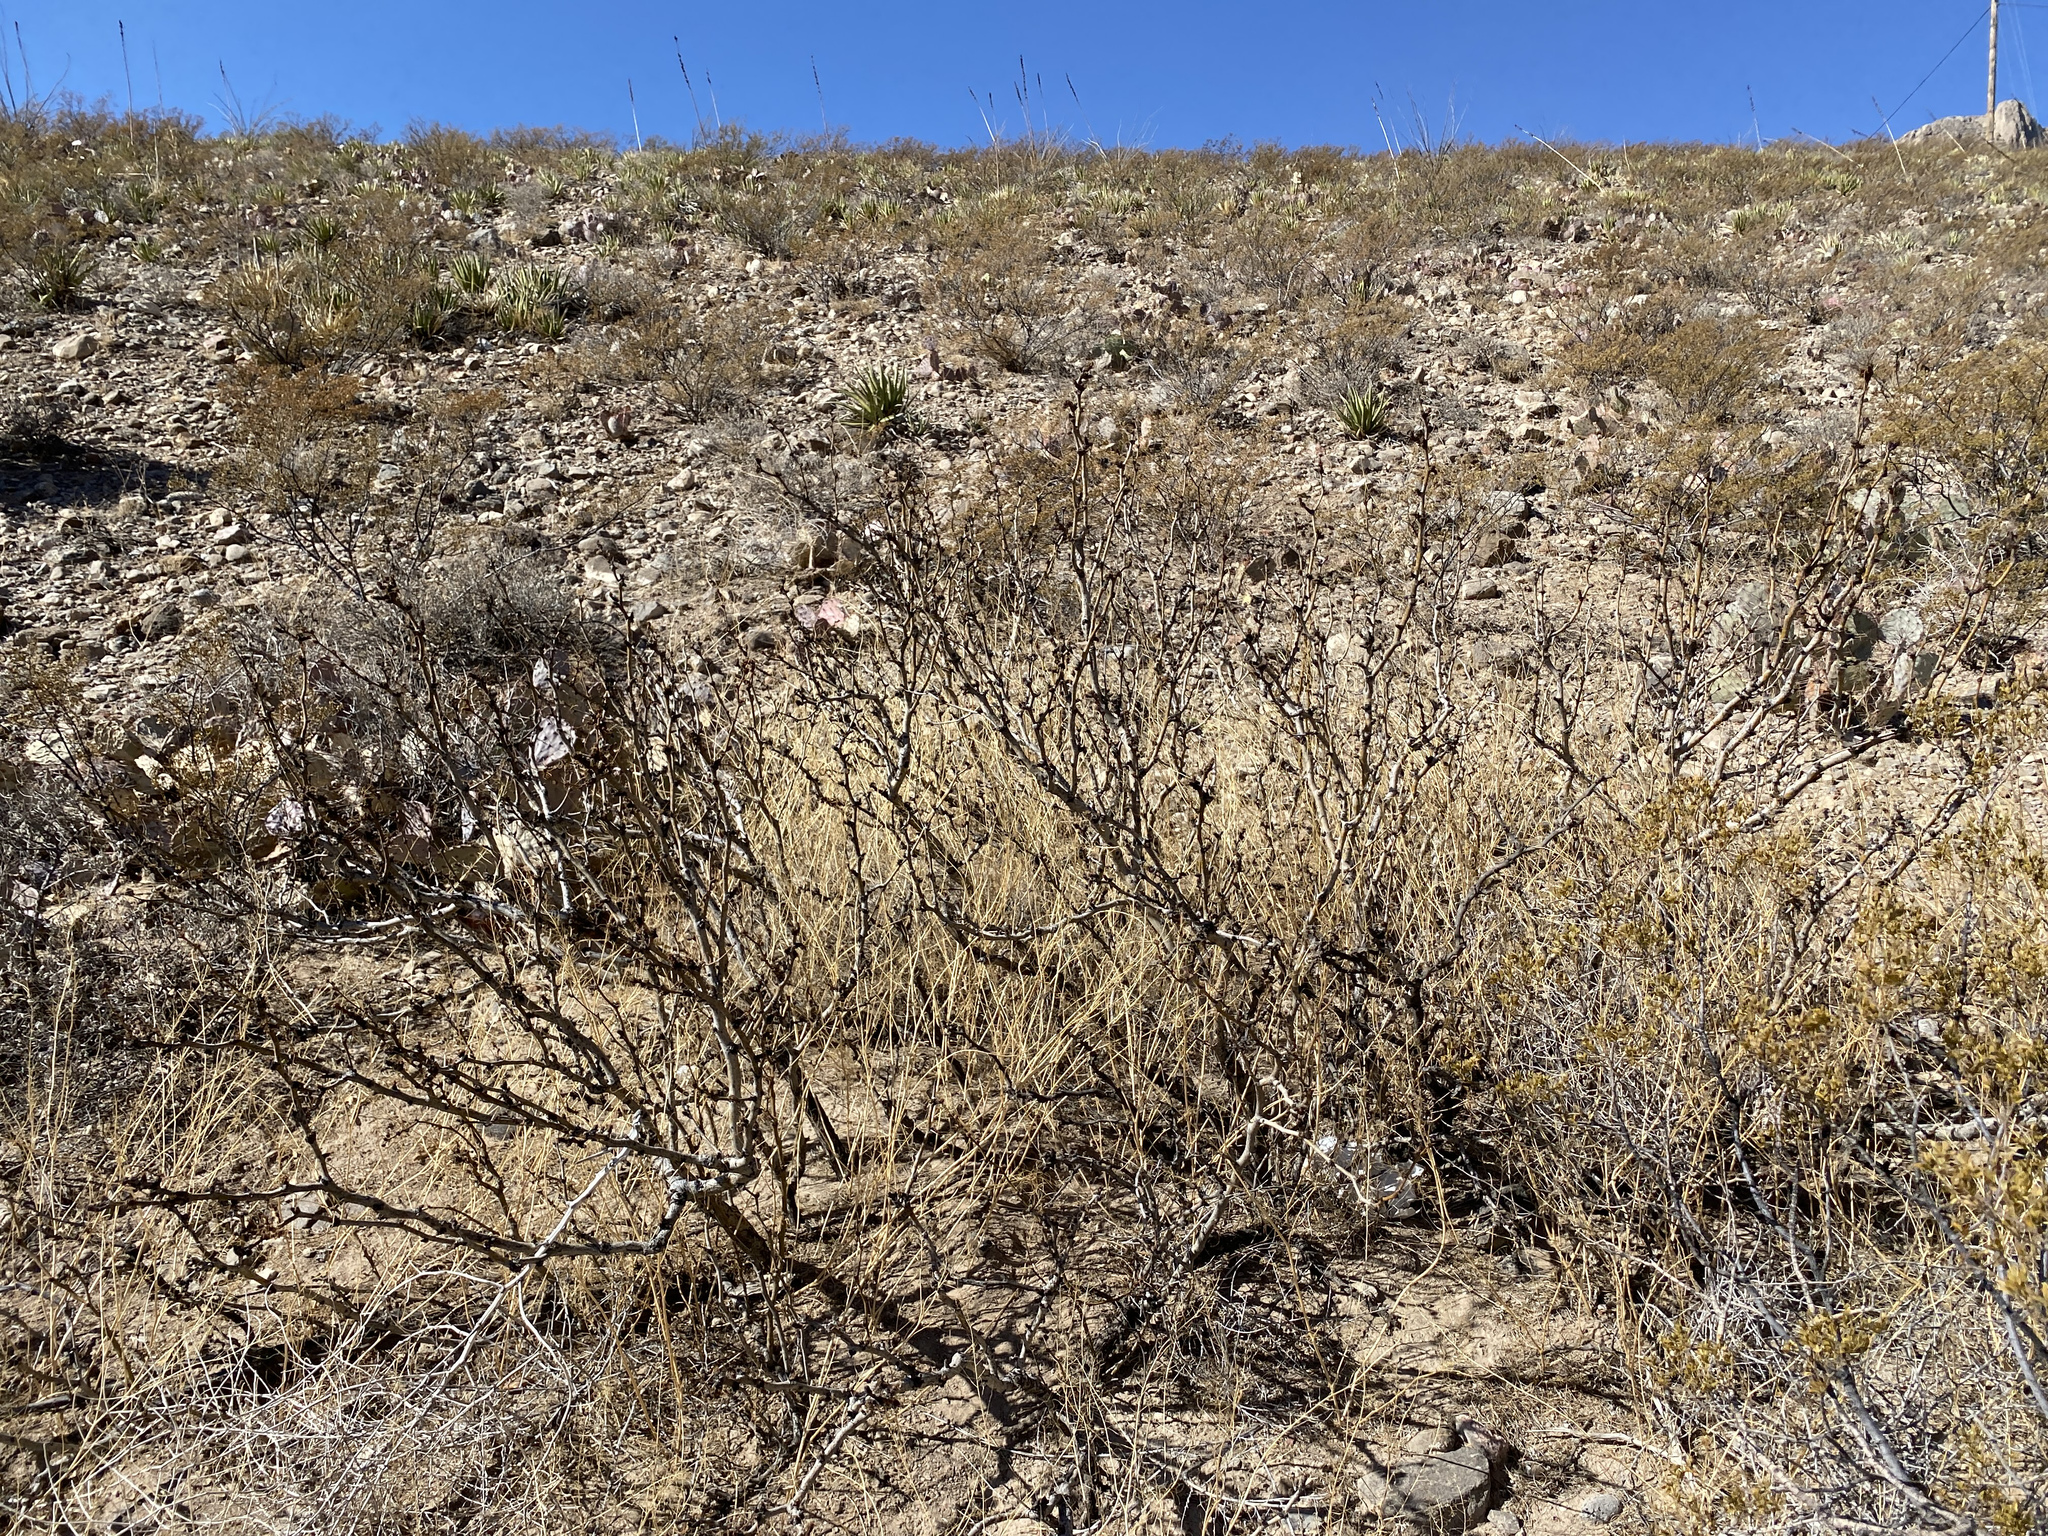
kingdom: Plantae
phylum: Tracheophyta
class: Magnoliopsida
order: Fabales
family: Fabaceae
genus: Prosopis
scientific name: Prosopis glandulosa
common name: Honey mesquite
